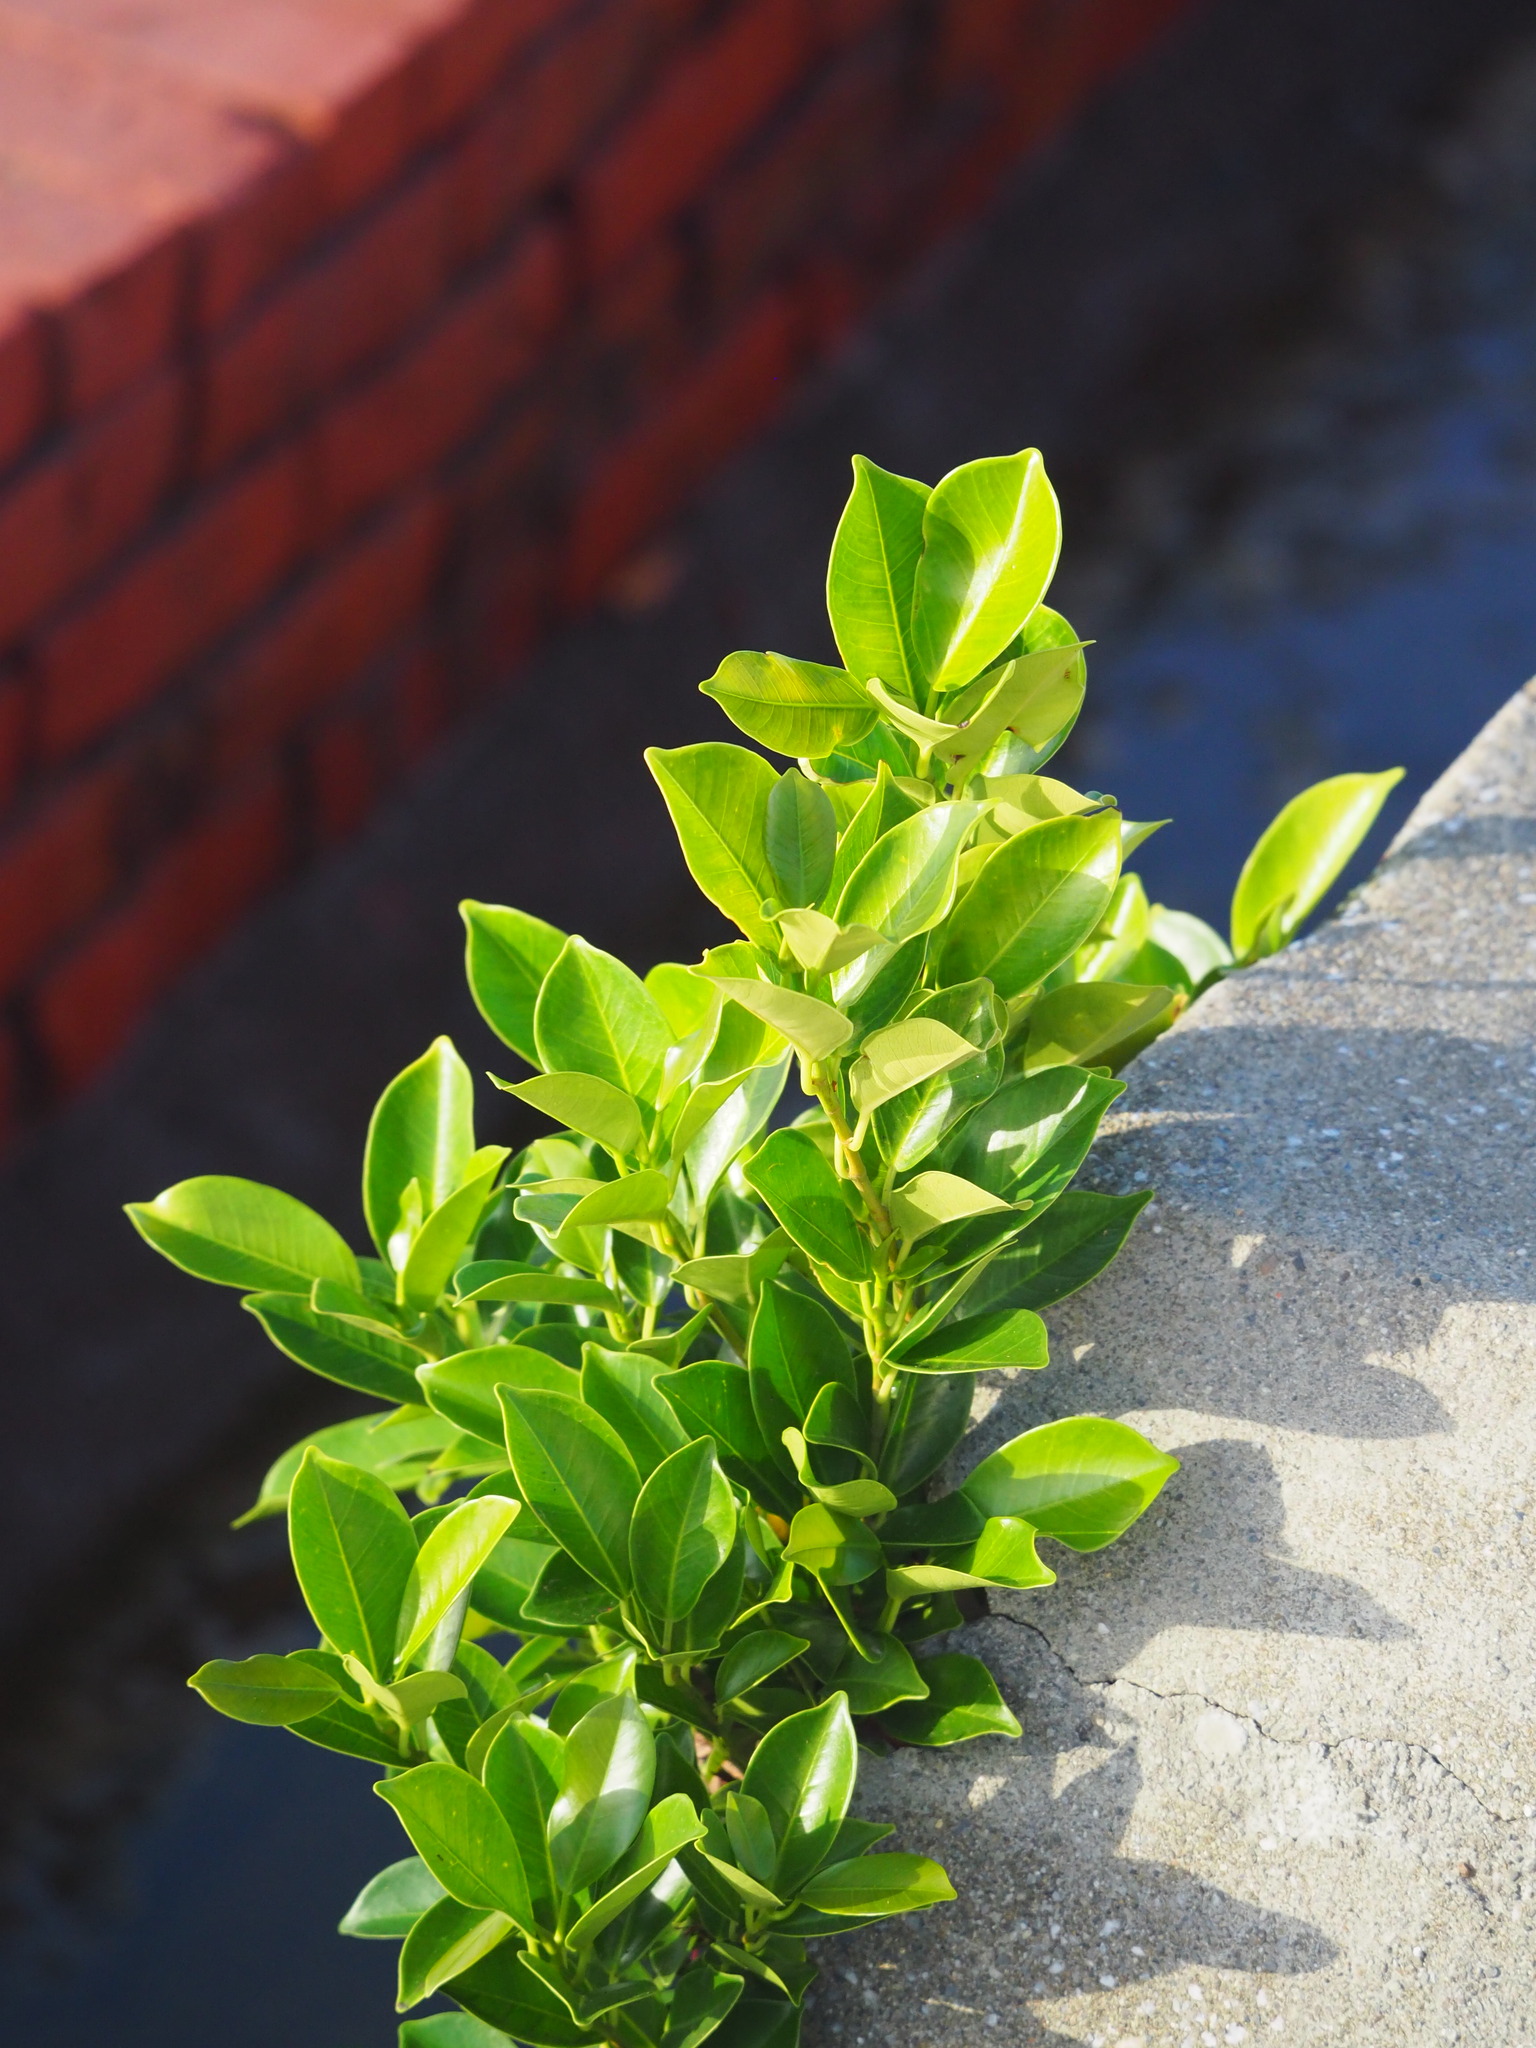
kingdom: Plantae
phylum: Tracheophyta
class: Magnoliopsida
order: Rosales
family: Moraceae
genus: Ficus
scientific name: Ficus microcarpa
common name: Chinese banyan
